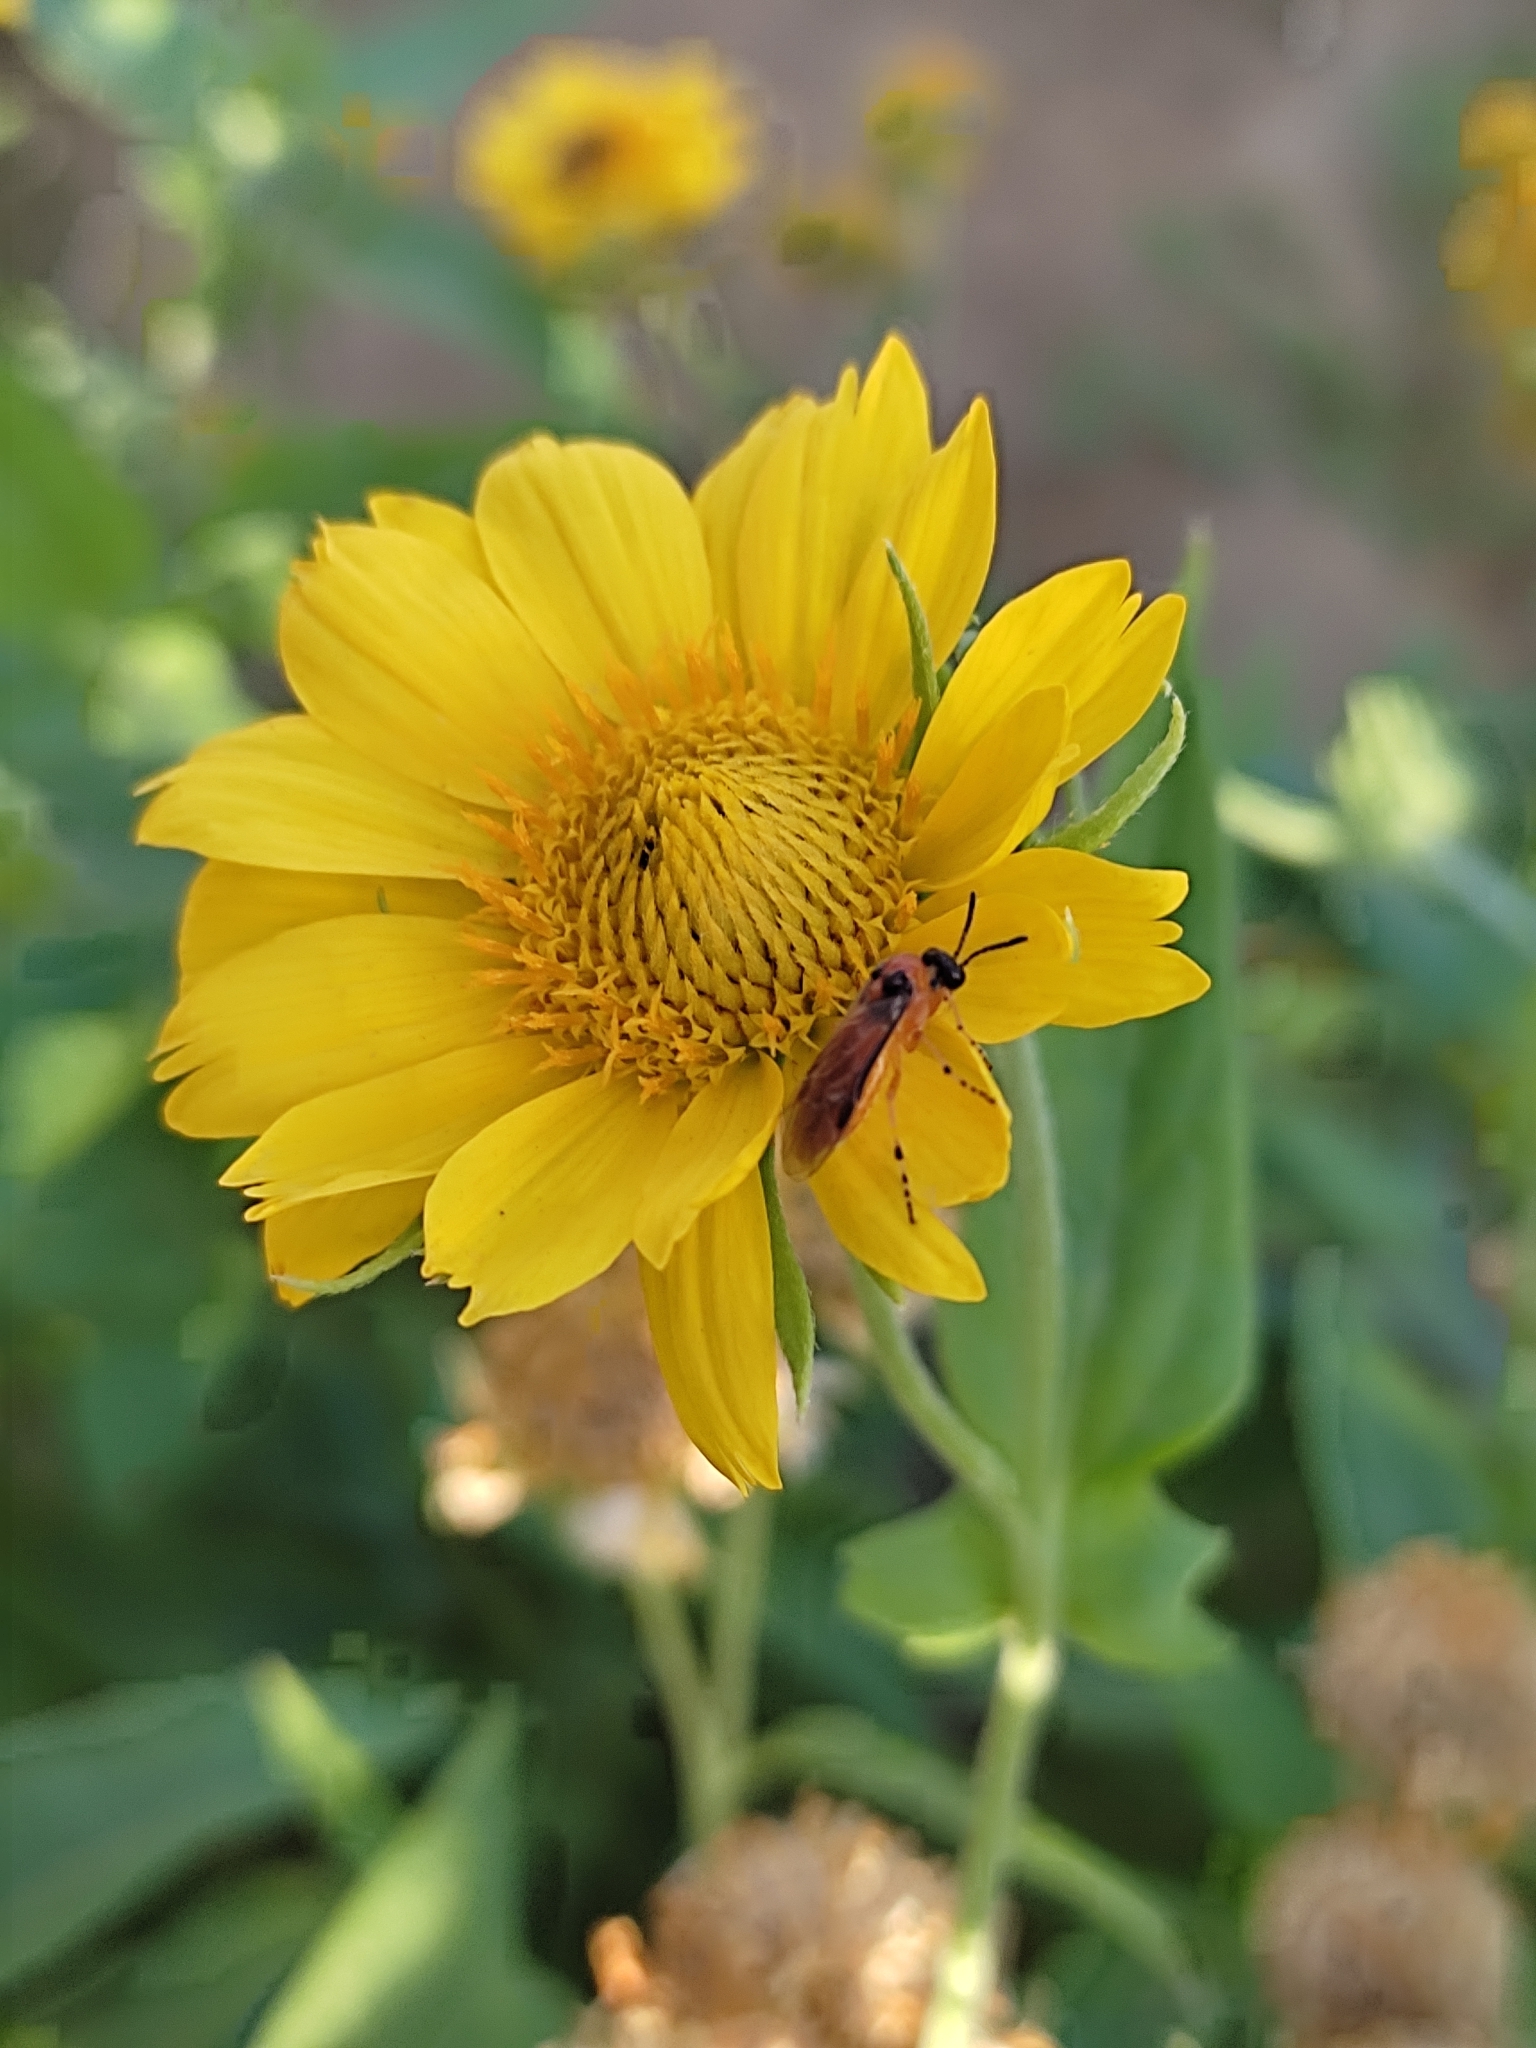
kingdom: Animalia
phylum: Arthropoda
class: Insecta
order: Hymenoptera
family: Tenthredinidae
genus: Athalia
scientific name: Athalia rosae
